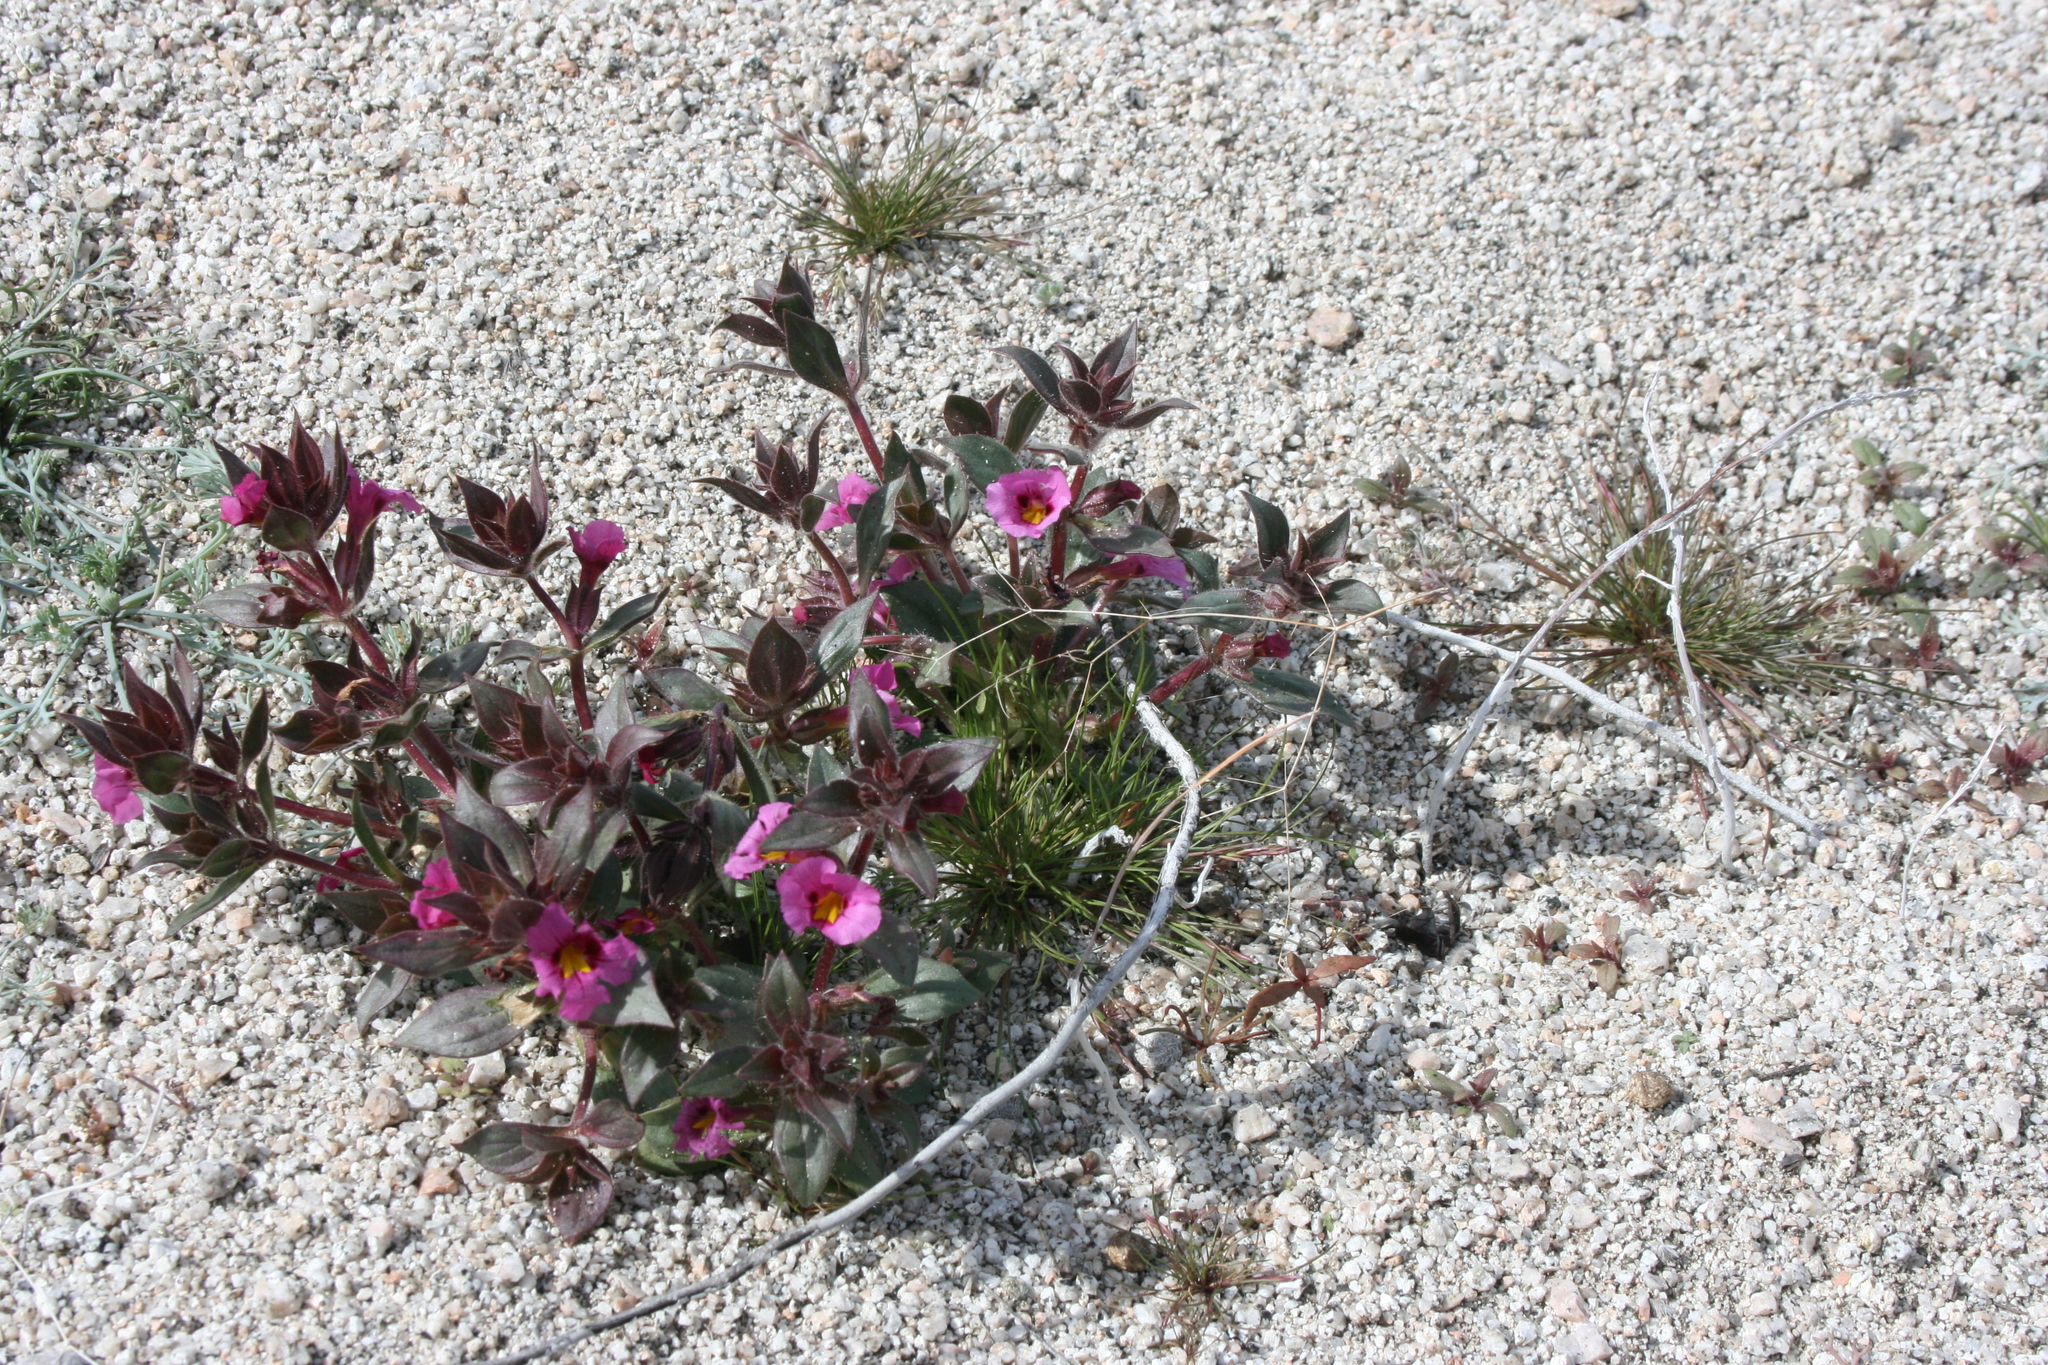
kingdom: Plantae
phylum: Tracheophyta
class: Magnoliopsida
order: Lamiales
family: Phrymaceae
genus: Diplacus
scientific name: Diplacus bigelovii
